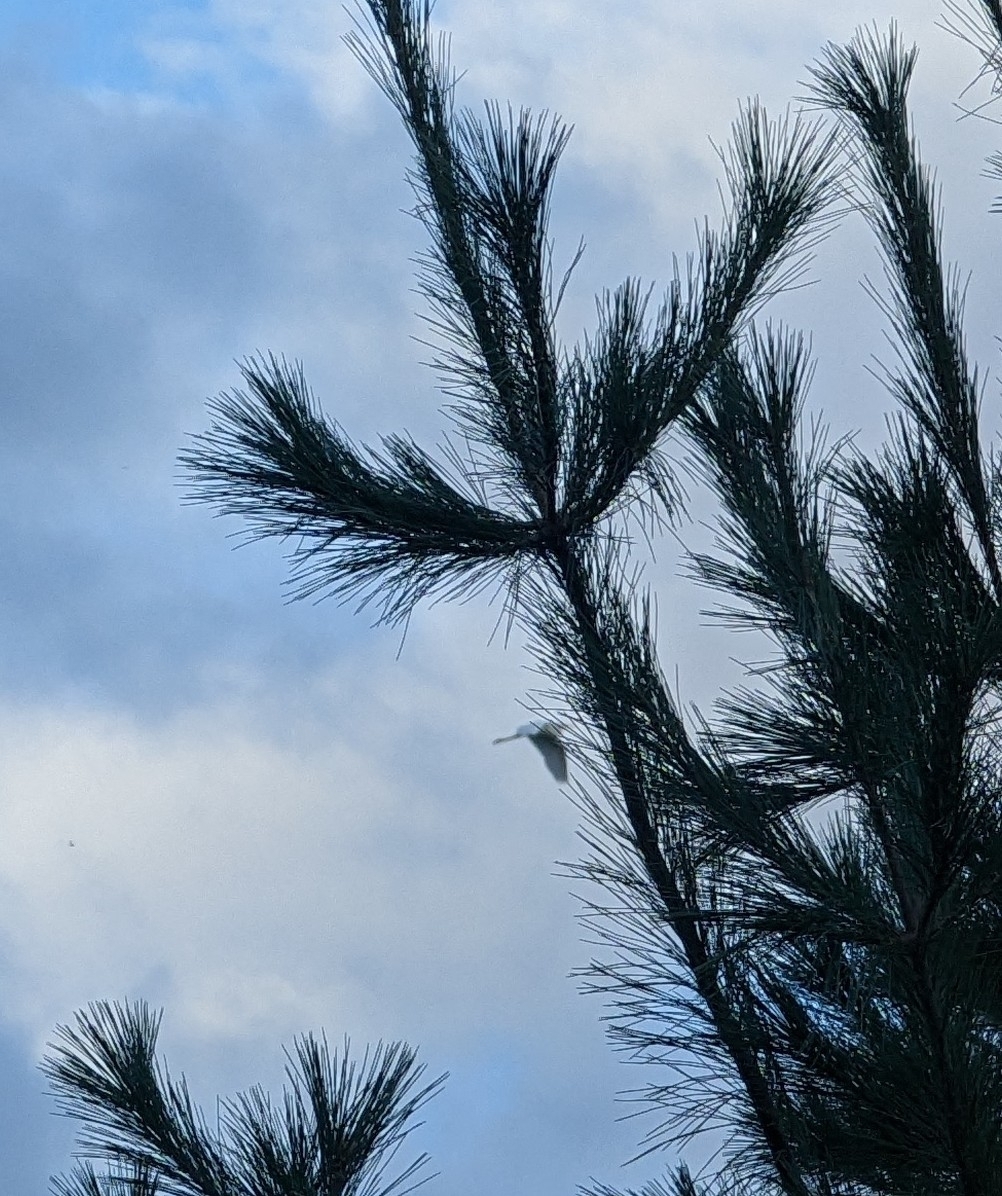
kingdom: Animalia
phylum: Chordata
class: Aves
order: Pelecaniformes
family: Ardeidae
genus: Ardea
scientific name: Ardea alba
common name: Great egret
